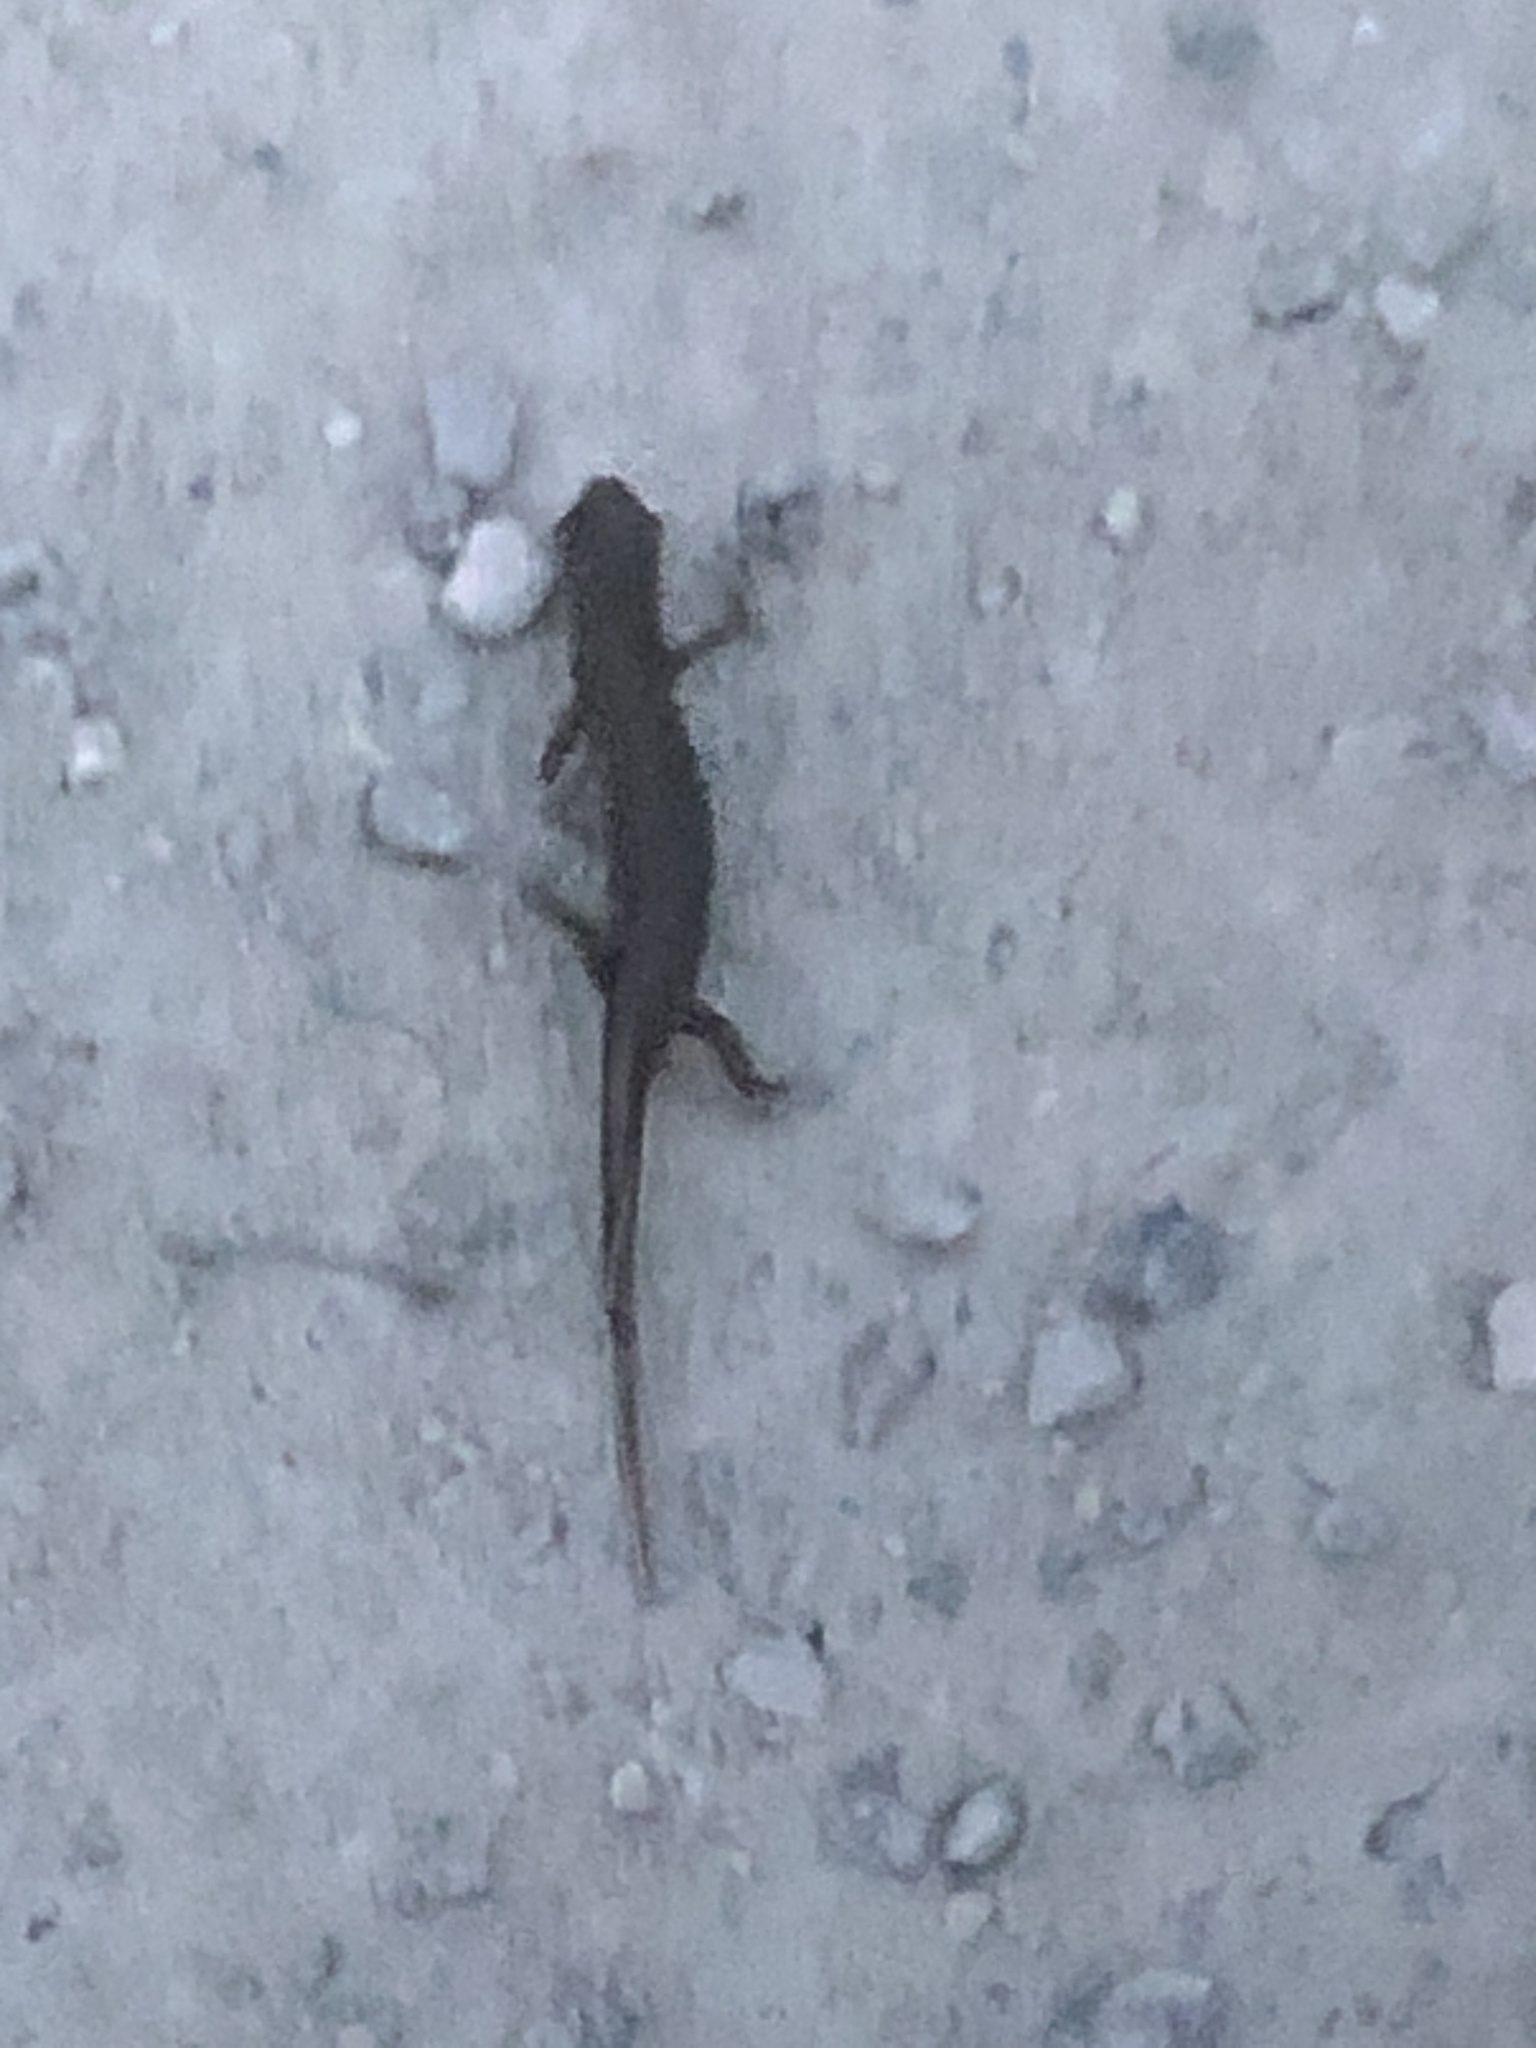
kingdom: Animalia
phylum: Chordata
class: Amphibia
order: Caudata
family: Salamandridae
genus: Lissotriton
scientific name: Lissotriton vulgaris
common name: Smooth newt
